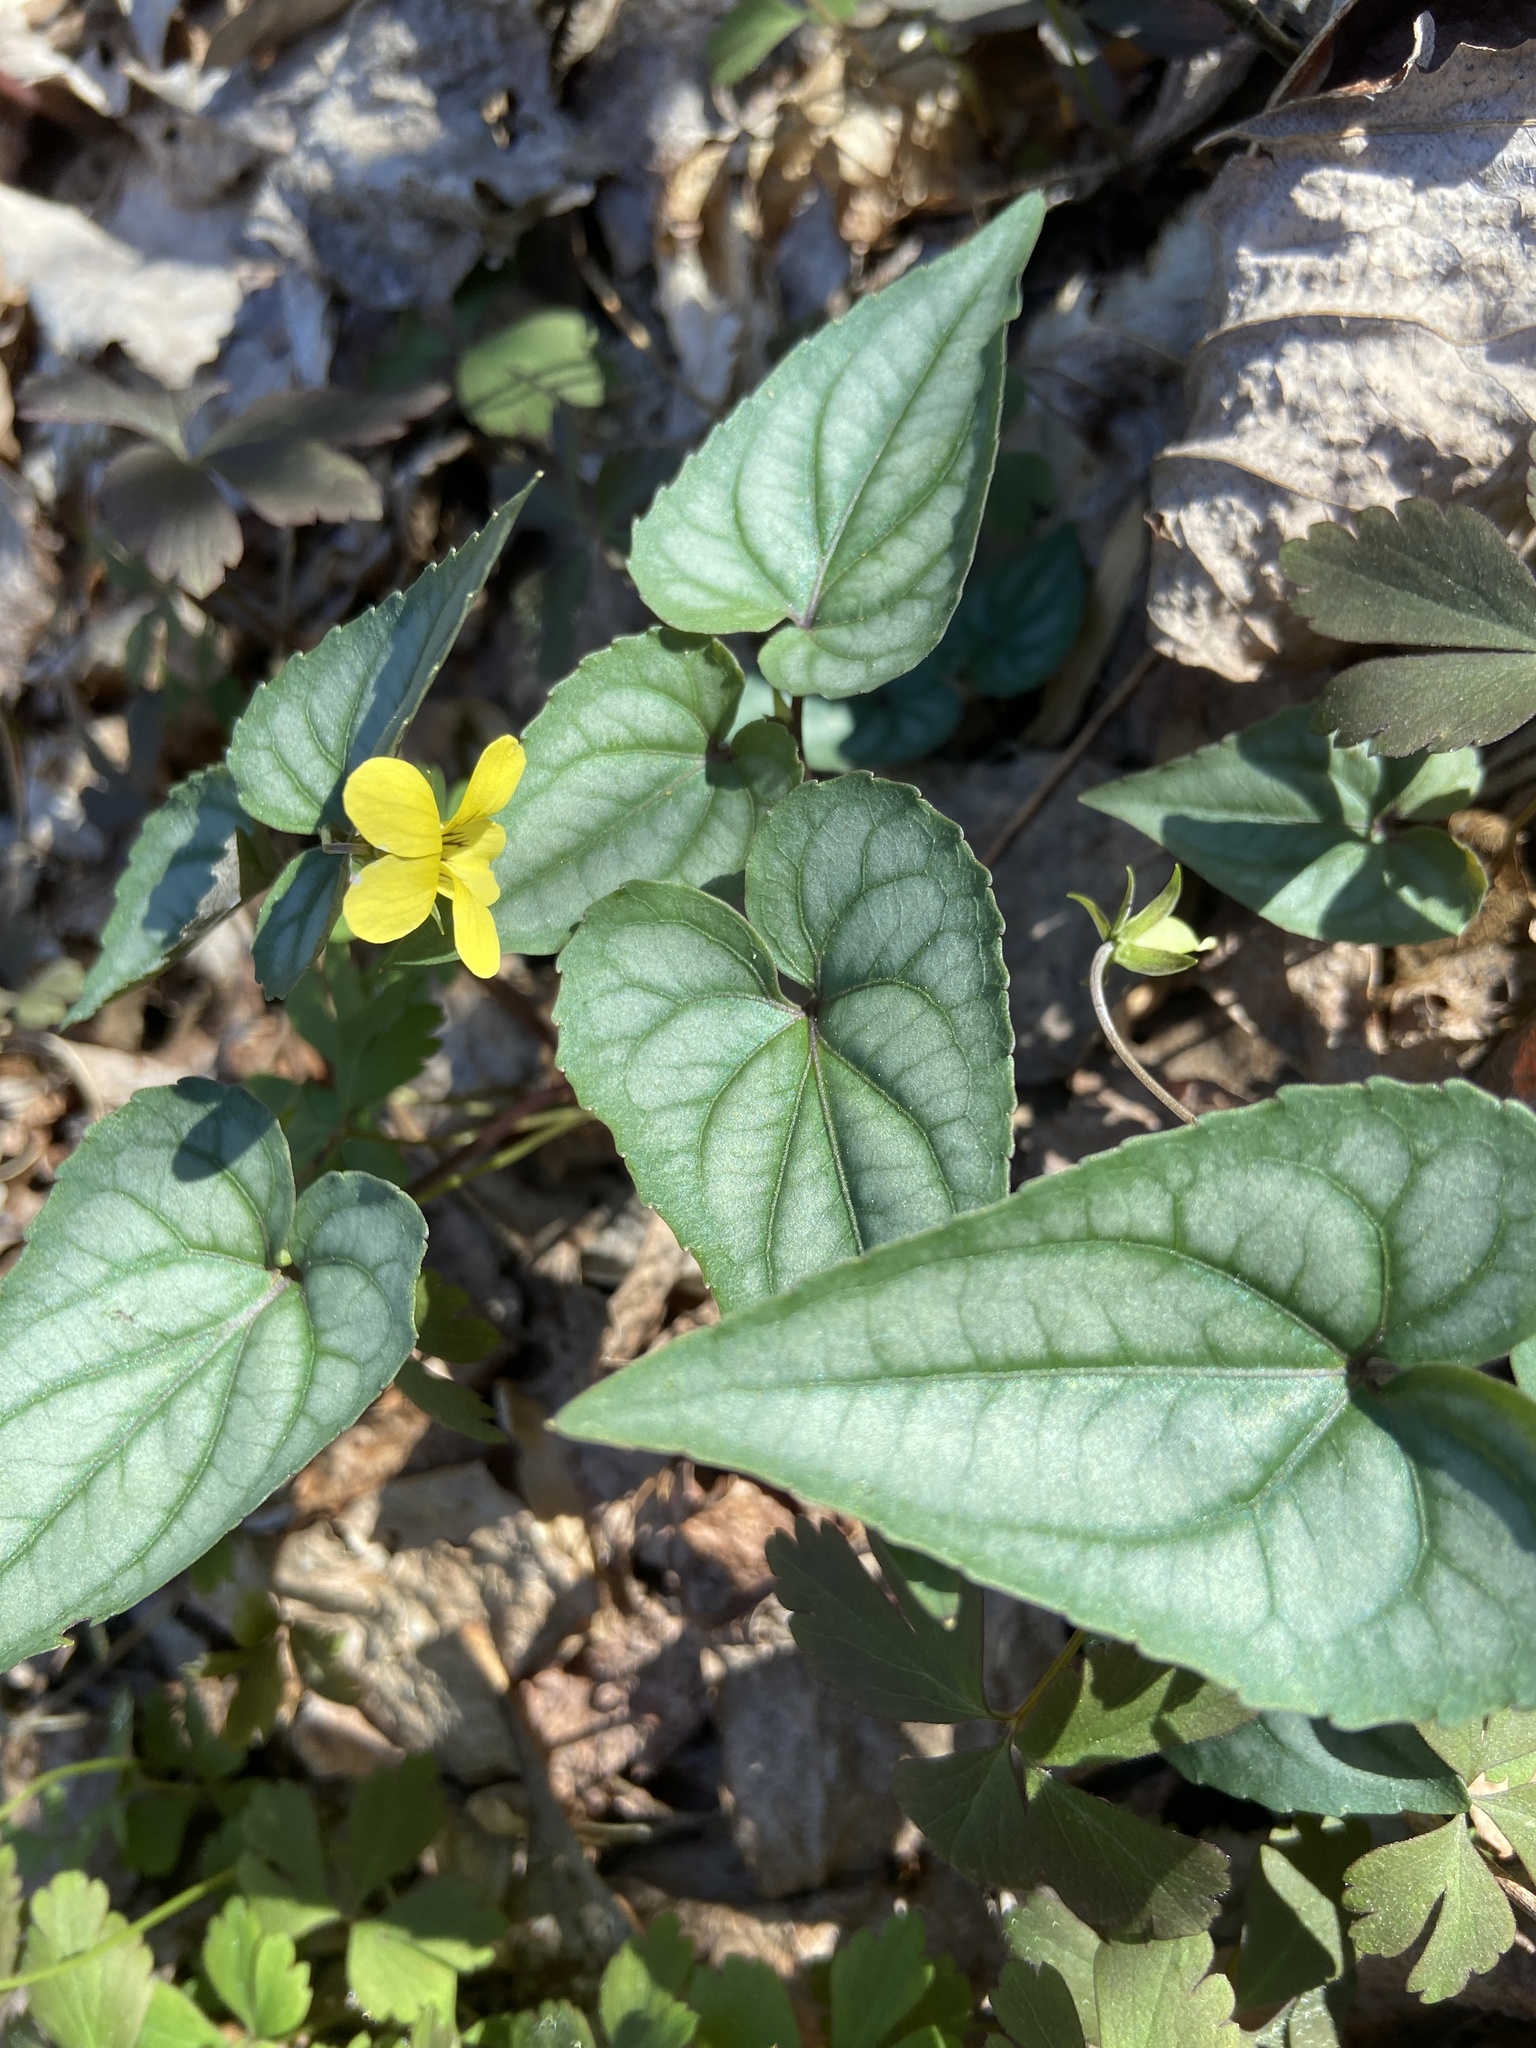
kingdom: Plantae
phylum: Tracheophyta
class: Magnoliopsida
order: Malpighiales
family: Violaceae
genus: Viola
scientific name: Viola hastata
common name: Spear-leaf violet
